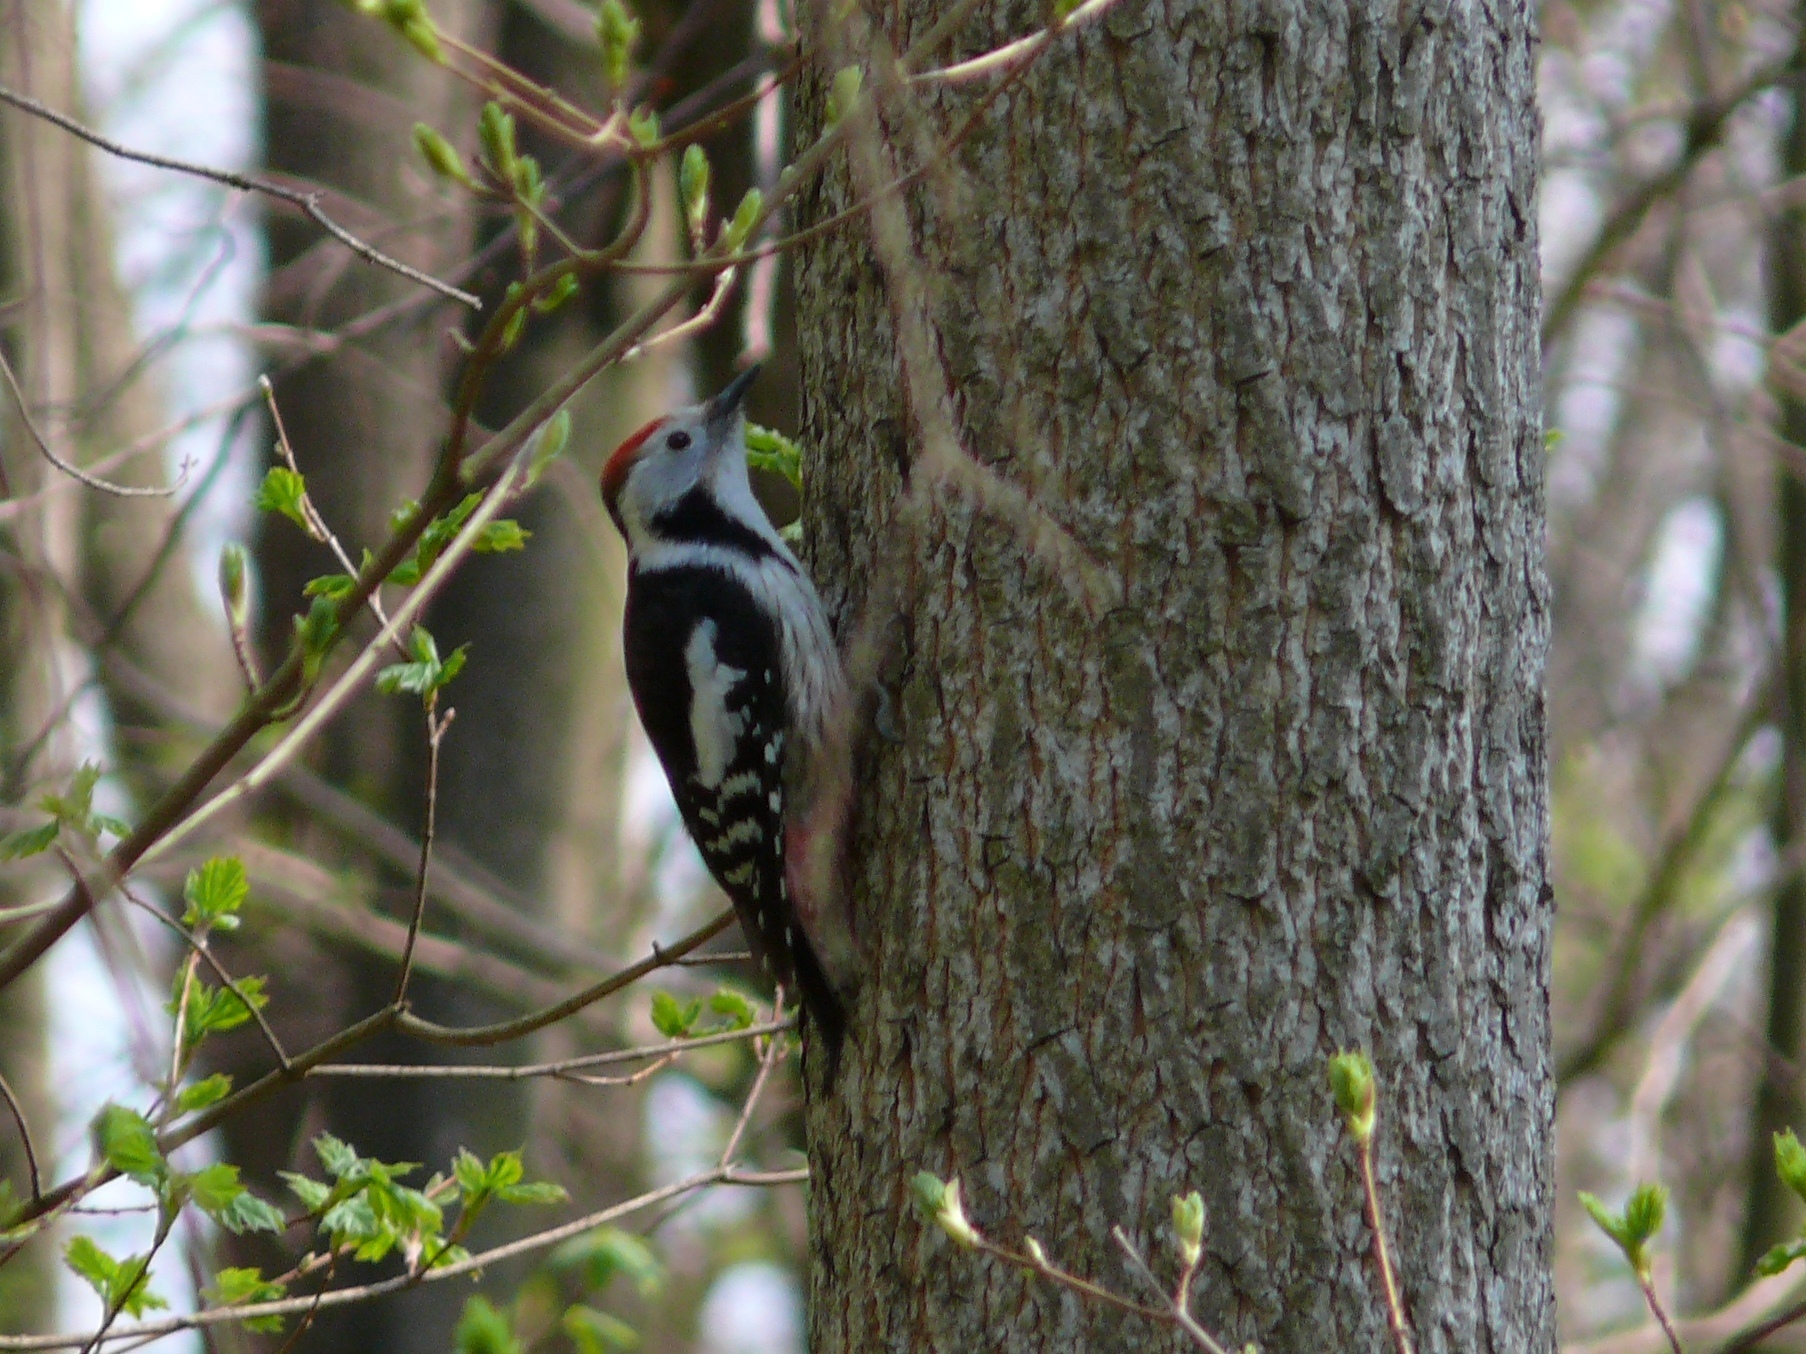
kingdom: Animalia
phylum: Chordata
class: Aves
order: Piciformes
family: Picidae
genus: Dendrocoptes
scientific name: Dendrocoptes medius
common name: Middle spotted woodpecker
